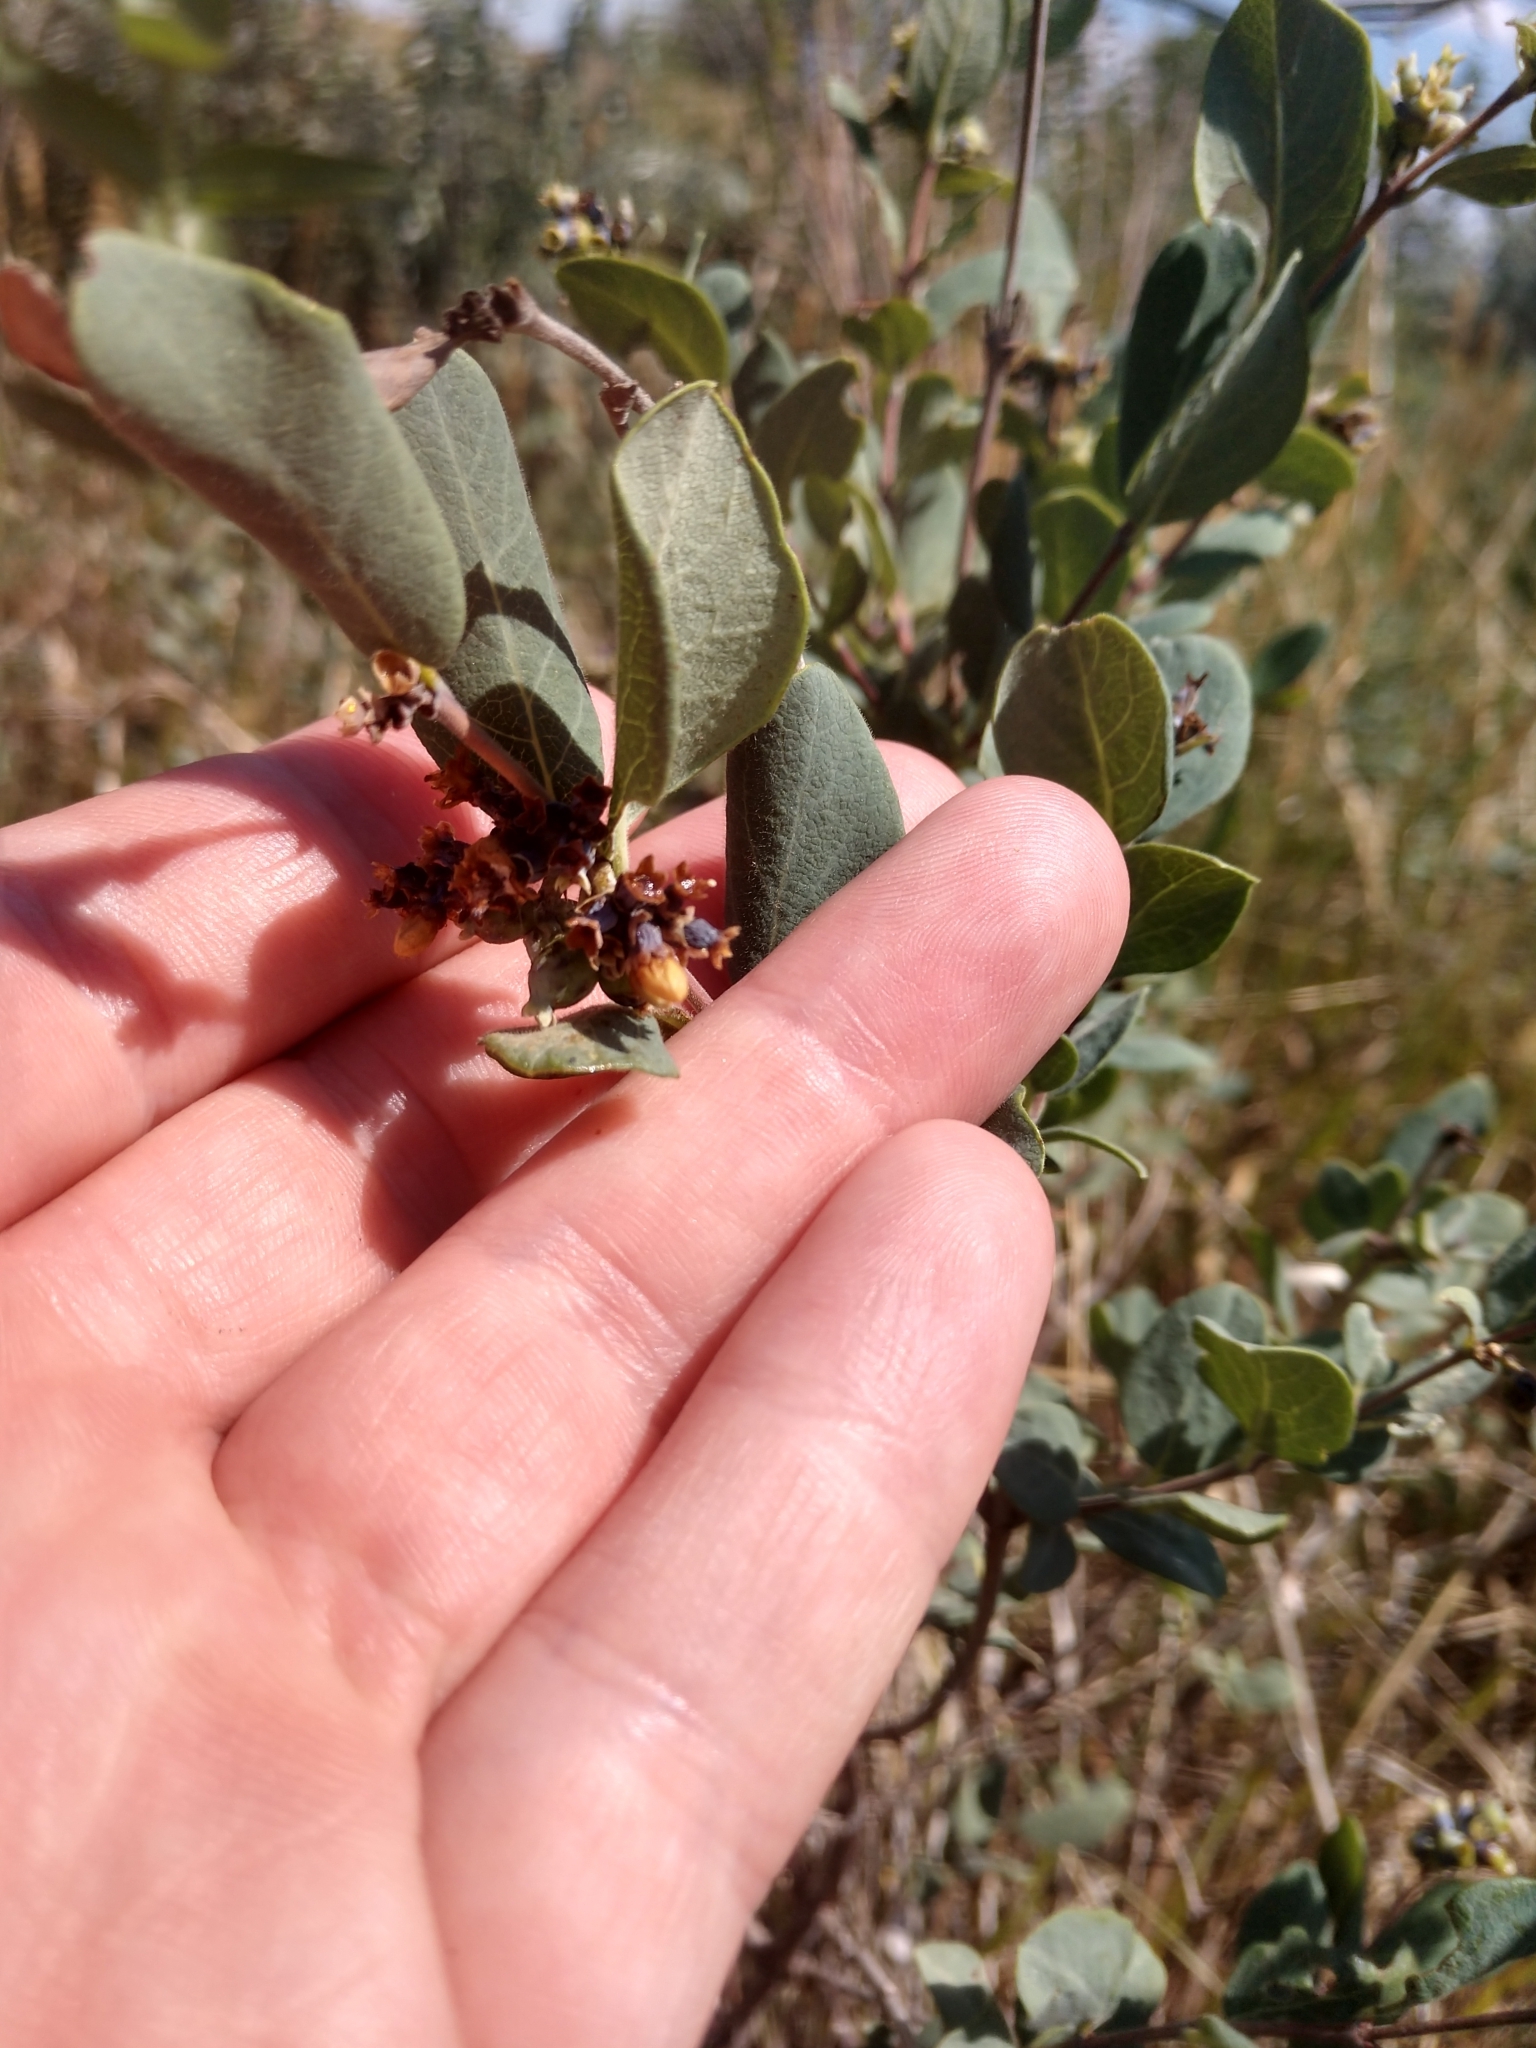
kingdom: Plantae
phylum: Tracheophyta
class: Magnoliopsida
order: Dipsacales
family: Caprifoliaceae
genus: Symphoricarpos
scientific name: Symphoricarpos occidentalis
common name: Wolfberry
